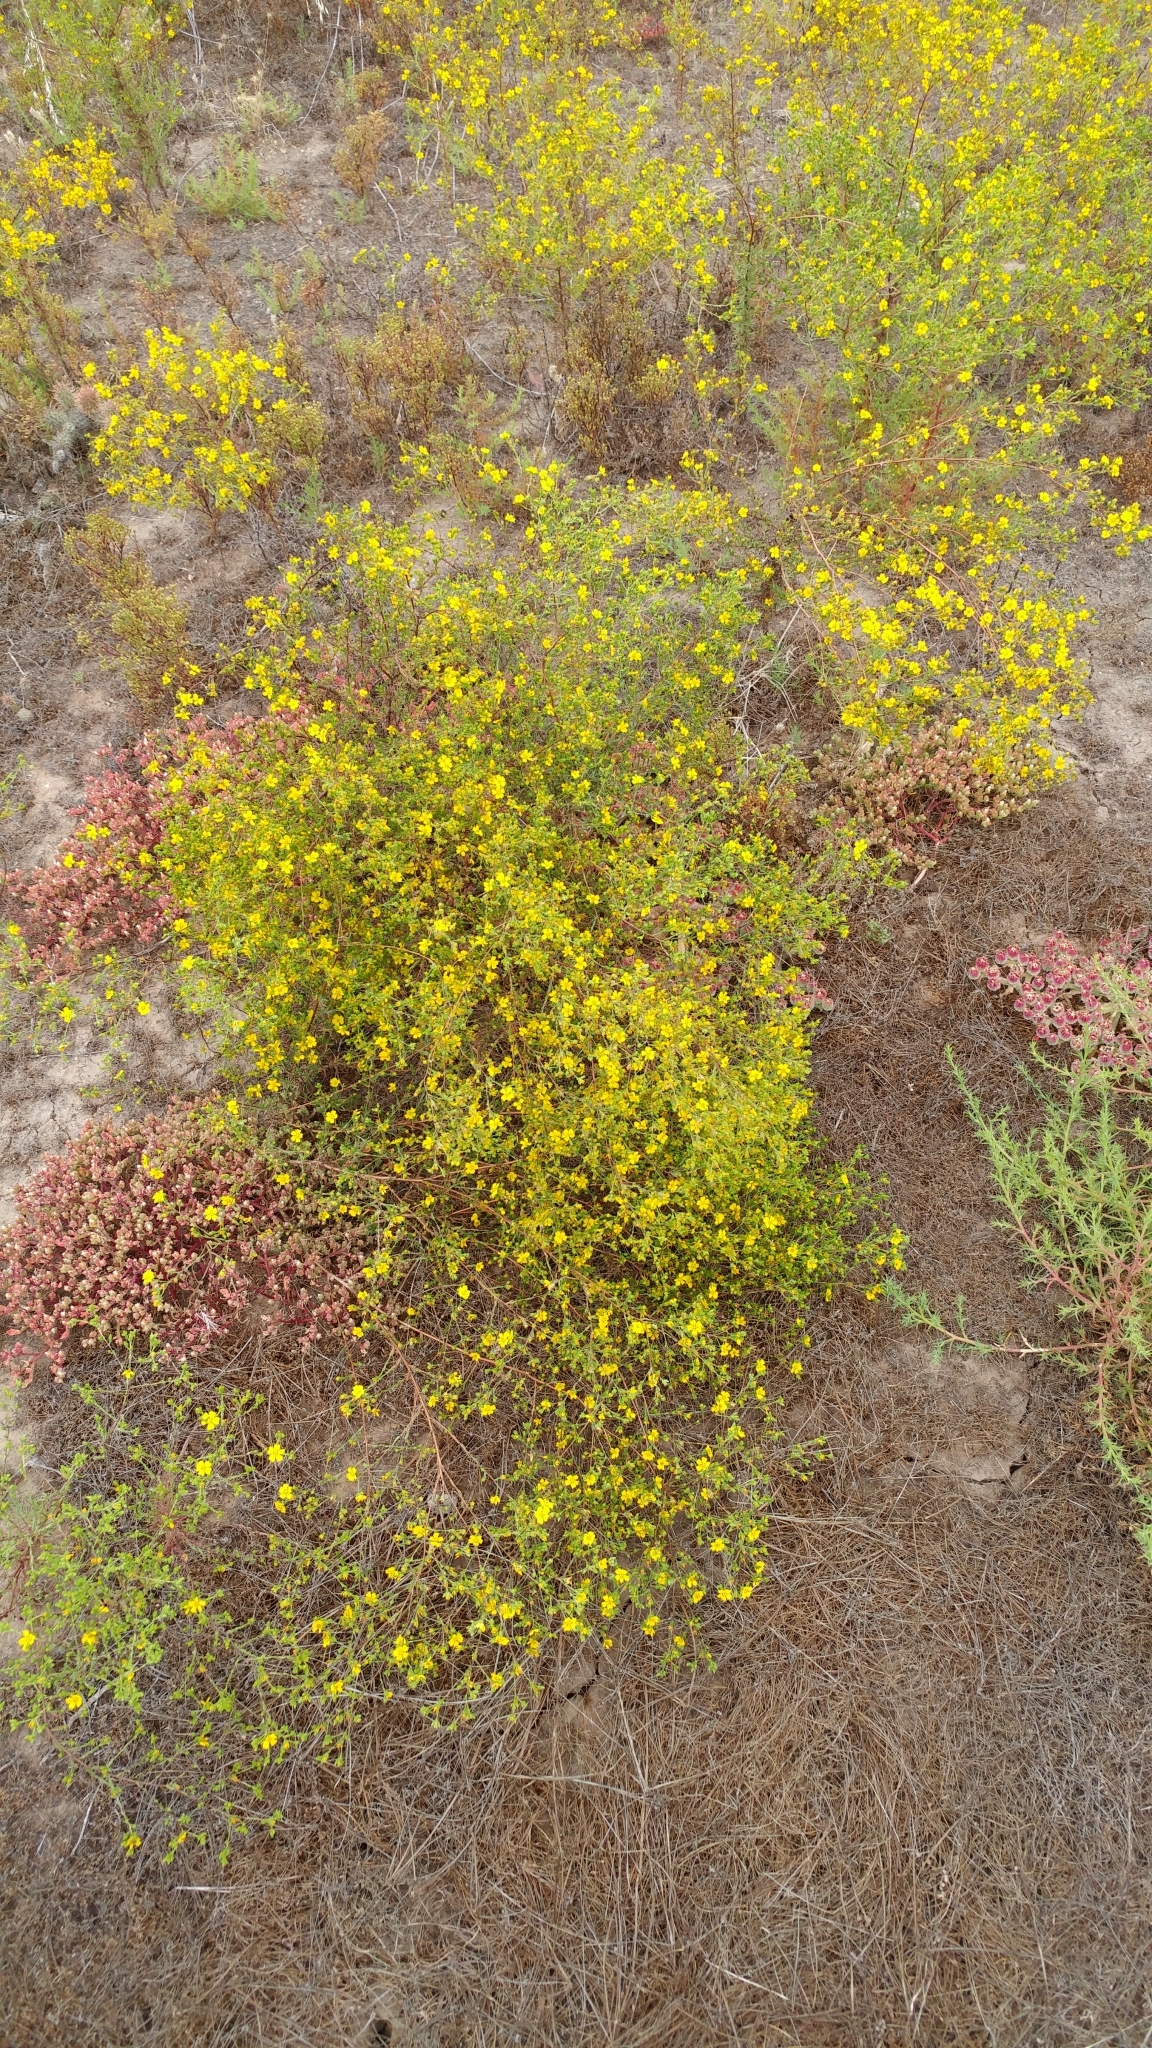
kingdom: Plantae
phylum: Tracheophyta
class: Magnoliopsida
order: Asterales
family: Asteraceae
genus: Deinandra
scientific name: Deinandra fasciculata
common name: Clustered tarweed
